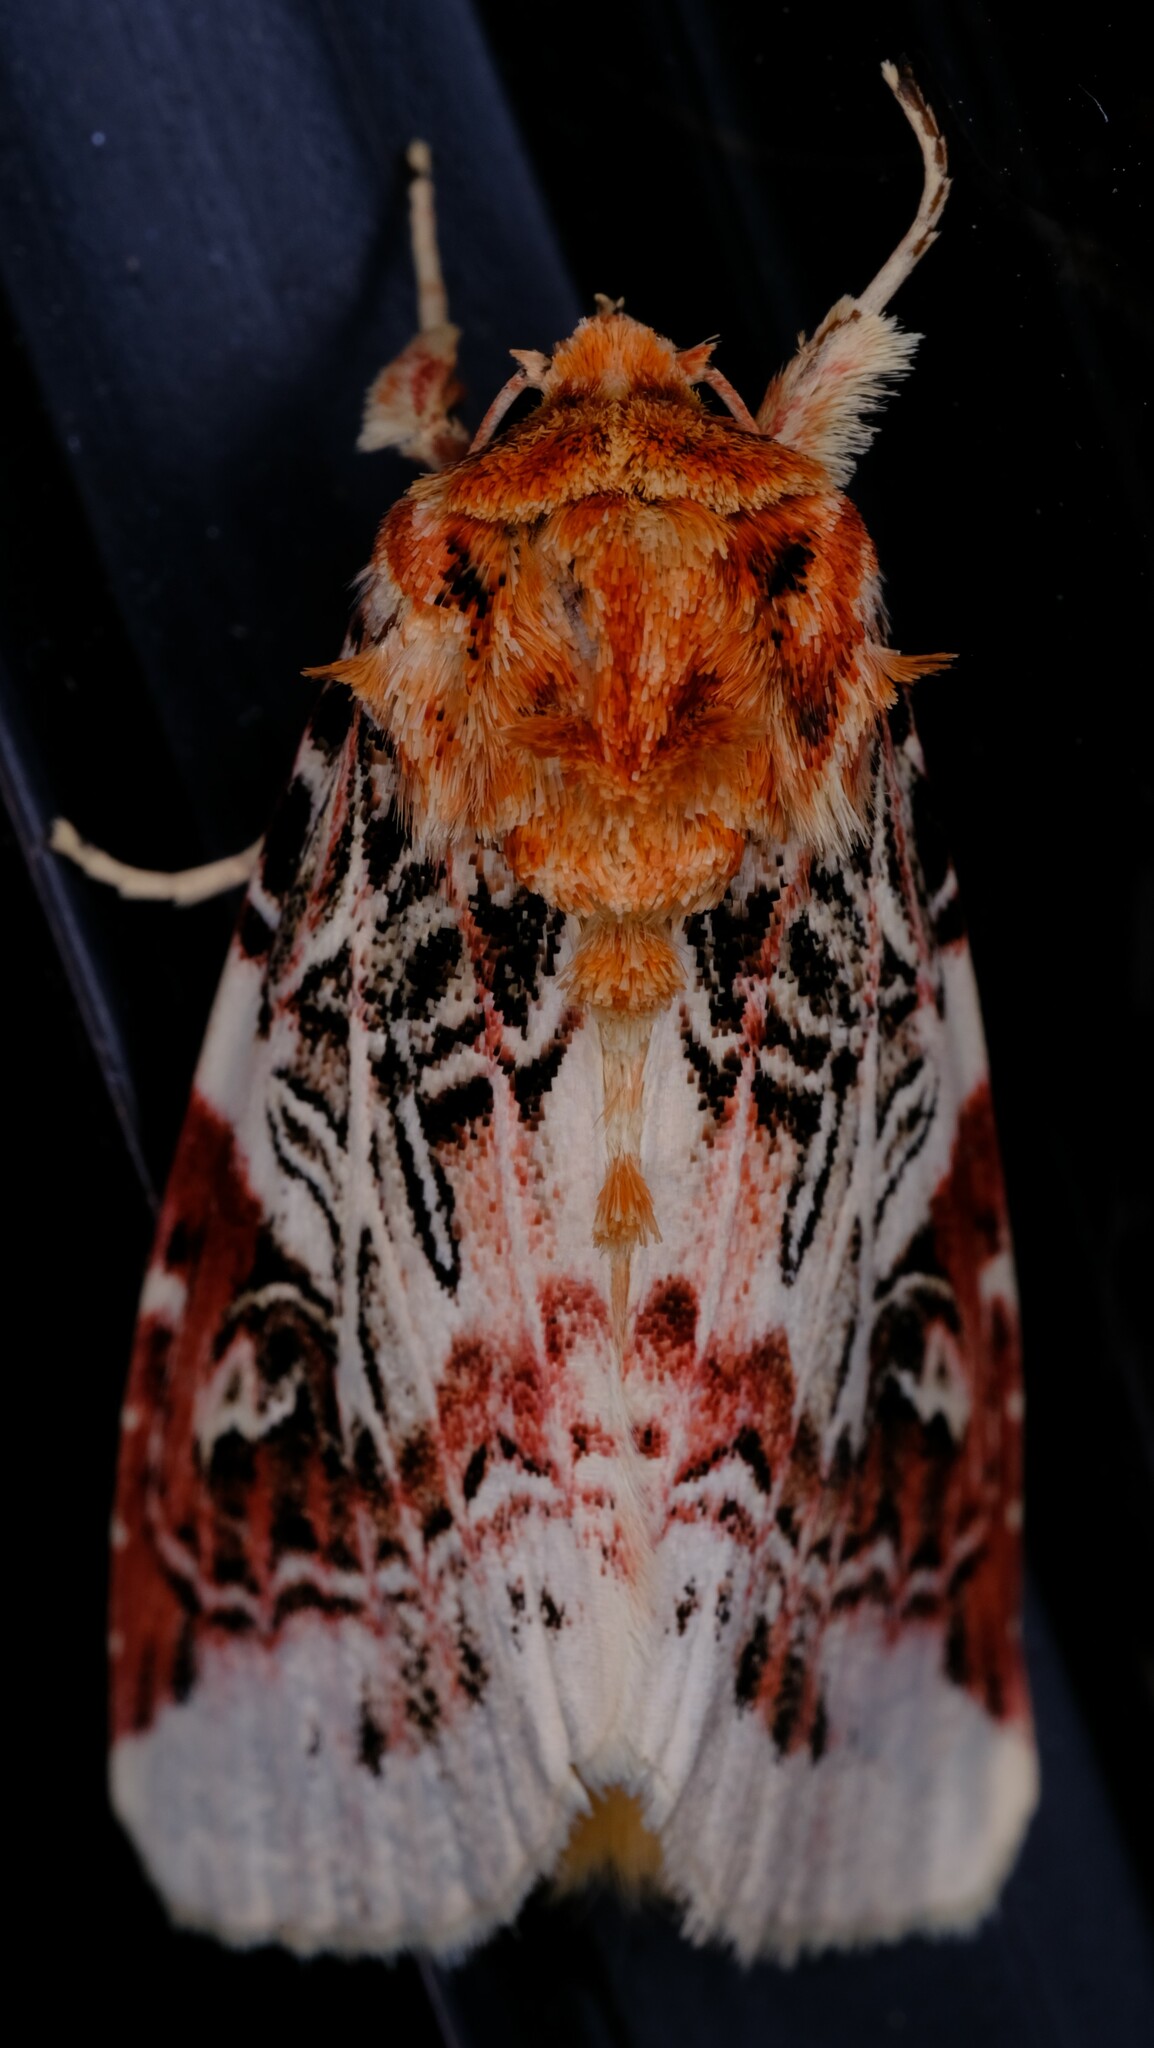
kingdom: Animalia
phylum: Arthropoda
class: Insecta
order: Lepidoptera
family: Noctuidae
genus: Spodoptera
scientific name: Spodoptera picta
